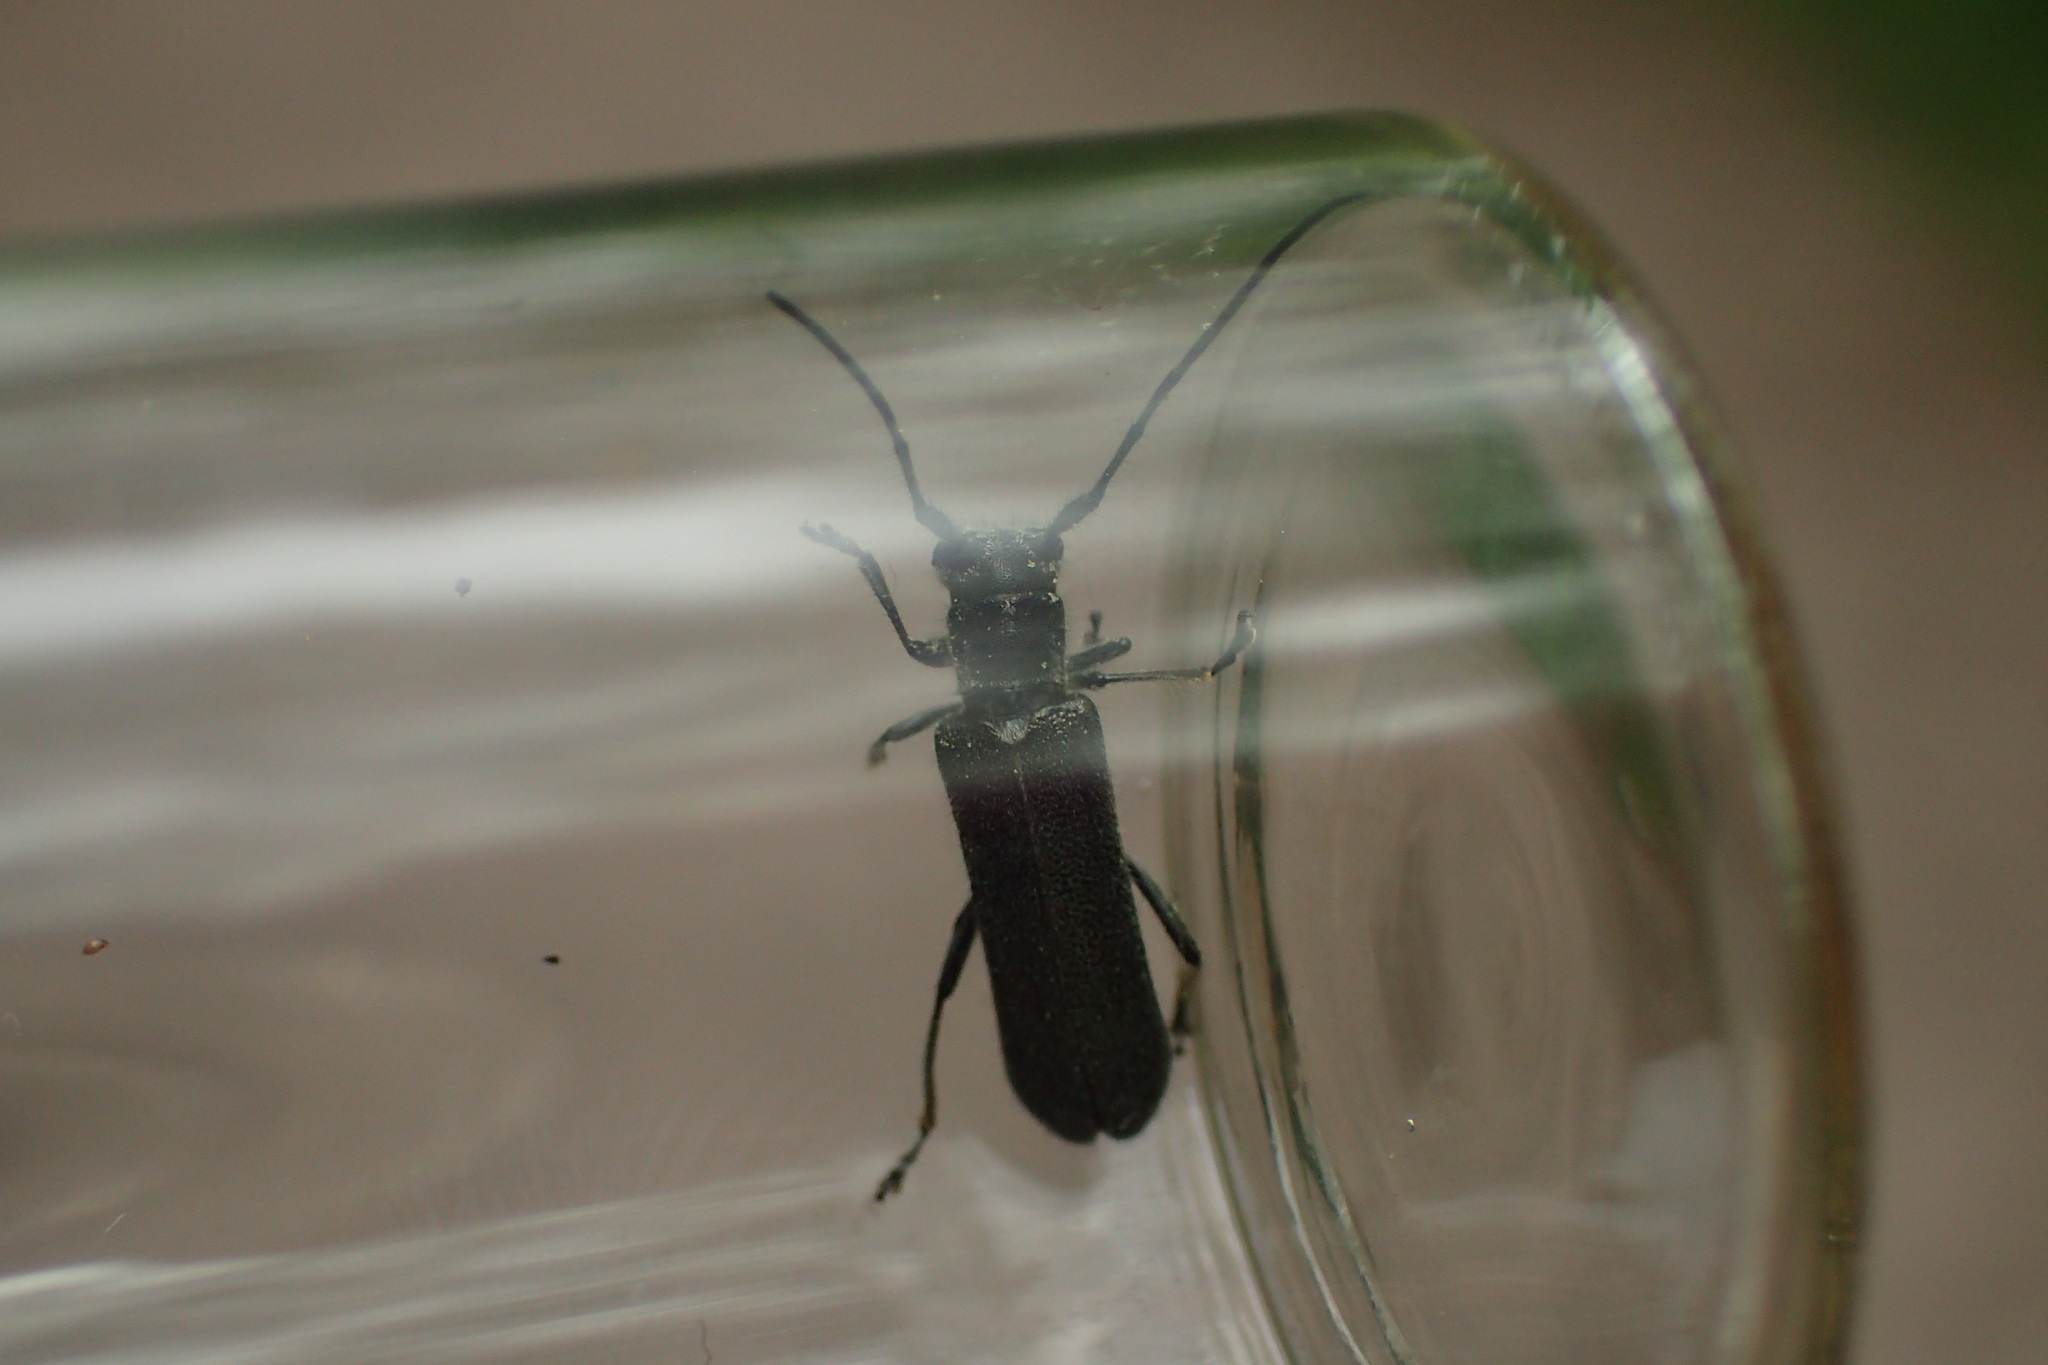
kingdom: Animalia
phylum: Arthropoda
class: Insecta
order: Coleoptera
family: Cerambycidae
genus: Stenostola
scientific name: Stenostola dubia
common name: Lime beetle
